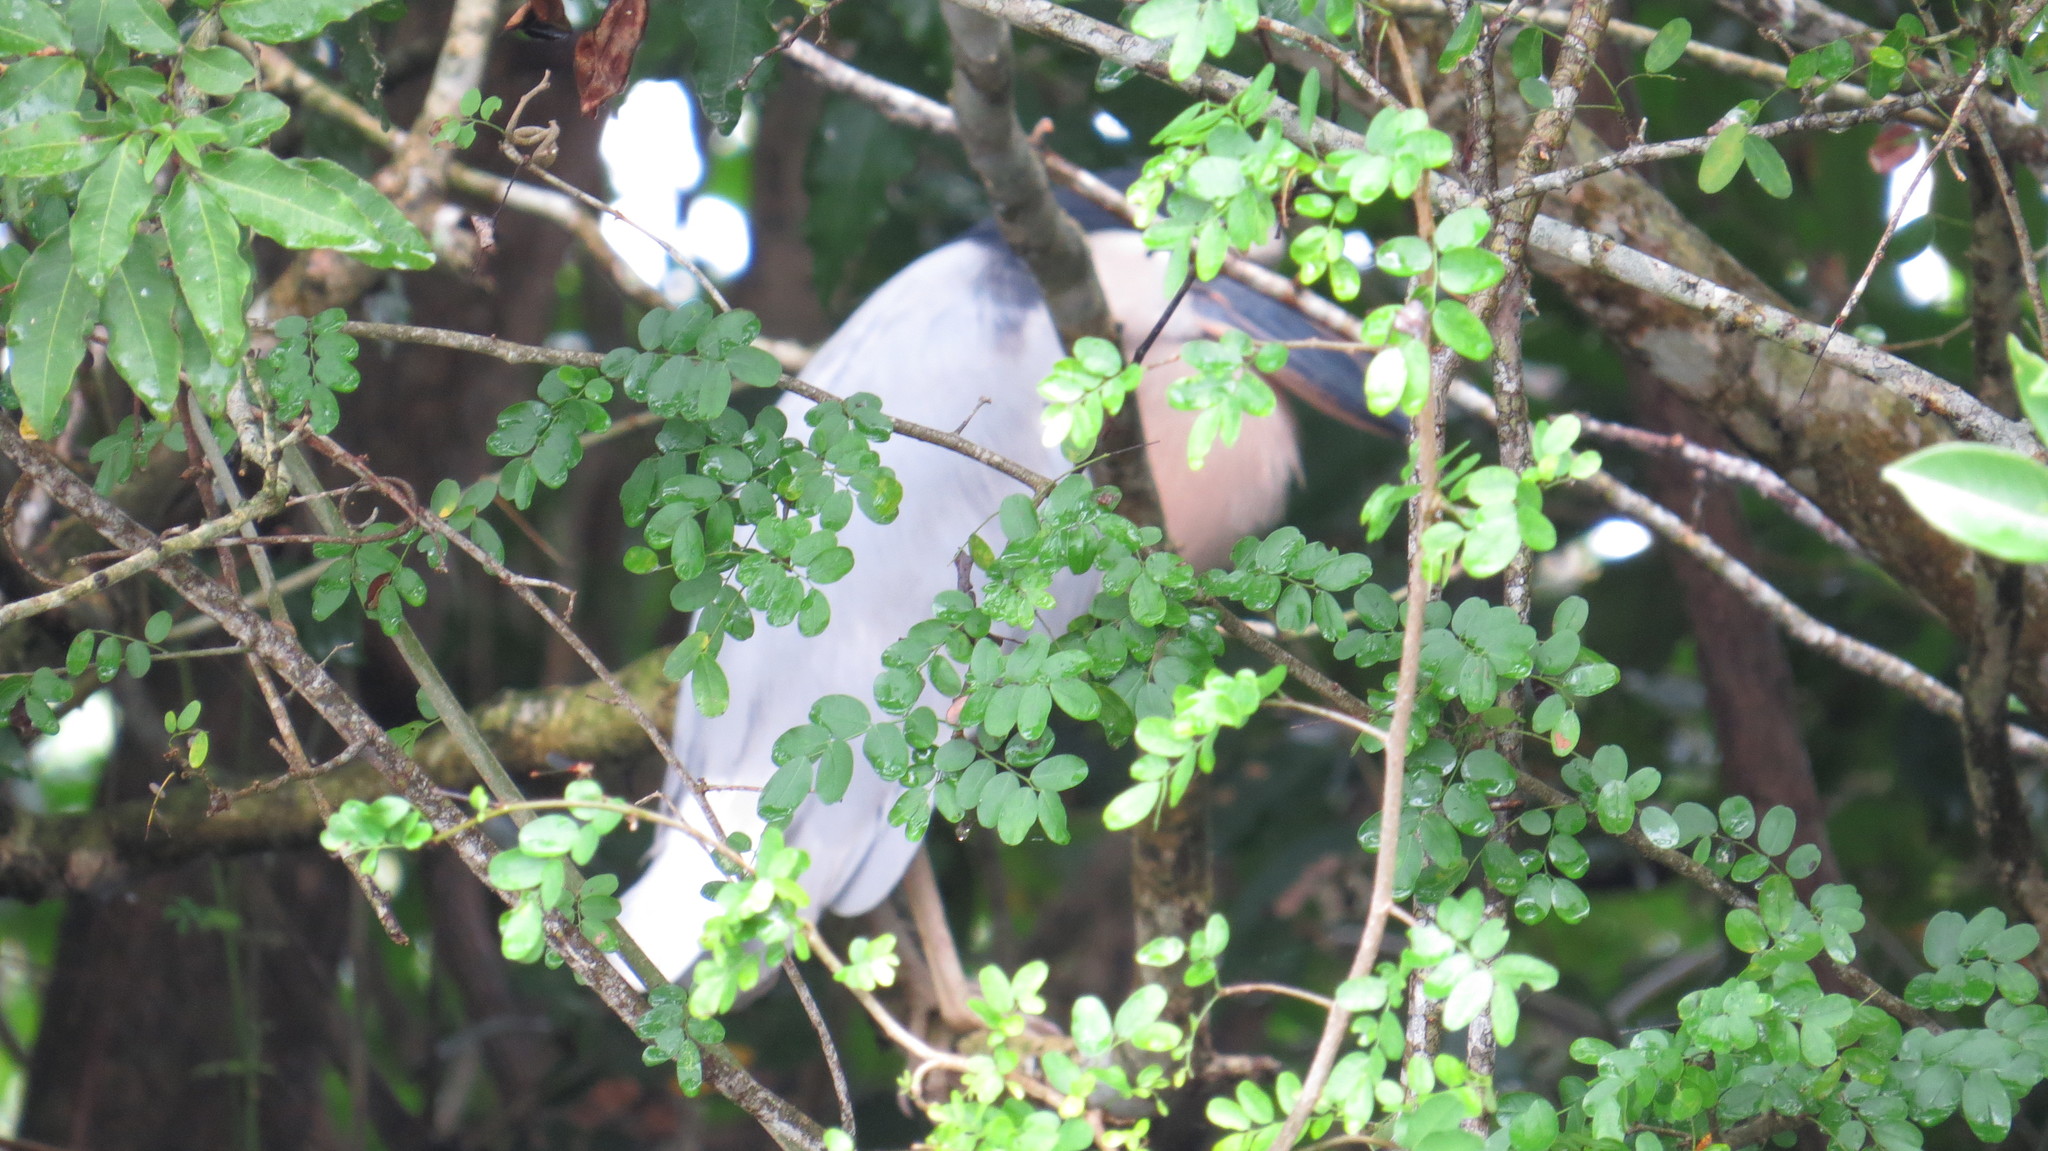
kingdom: Animalia
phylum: Chordata
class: Aves
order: Pelecaniformes
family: Ardeidae
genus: Cochlearius
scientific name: Cochlearius cochlearius
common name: Boat-billed heron
